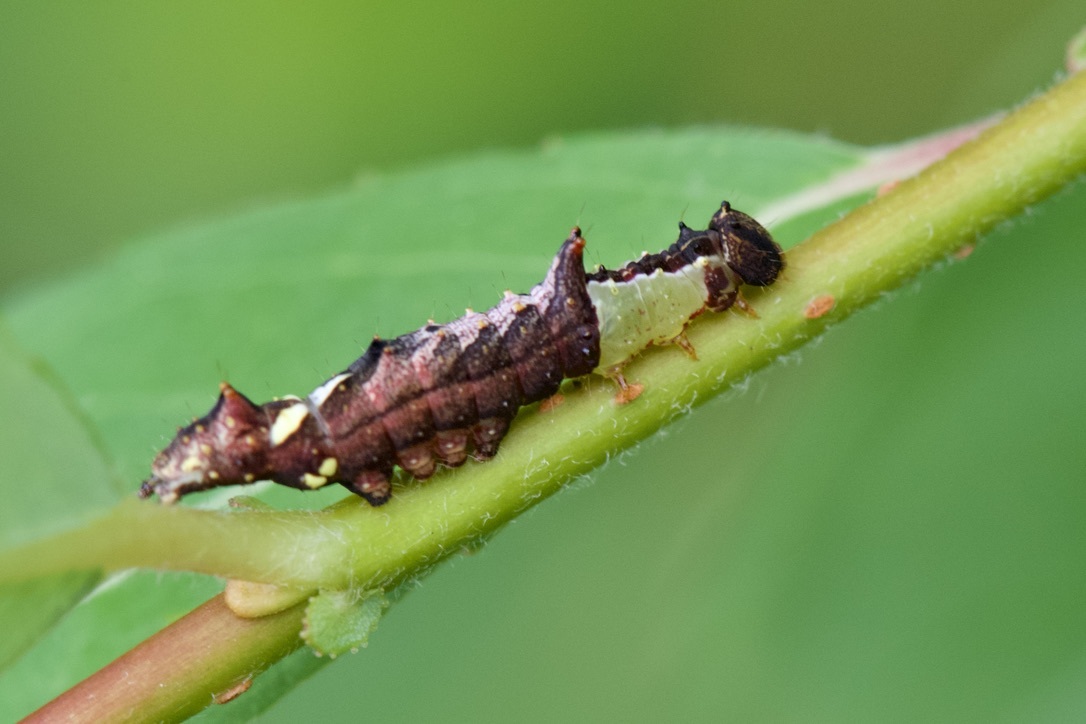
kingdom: Animalia
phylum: Arthropoda
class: Insecta
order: Lepidoptera
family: Notodontidae
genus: Schizura
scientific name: Schizura ipomaeae
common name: Morning-glory prominent
